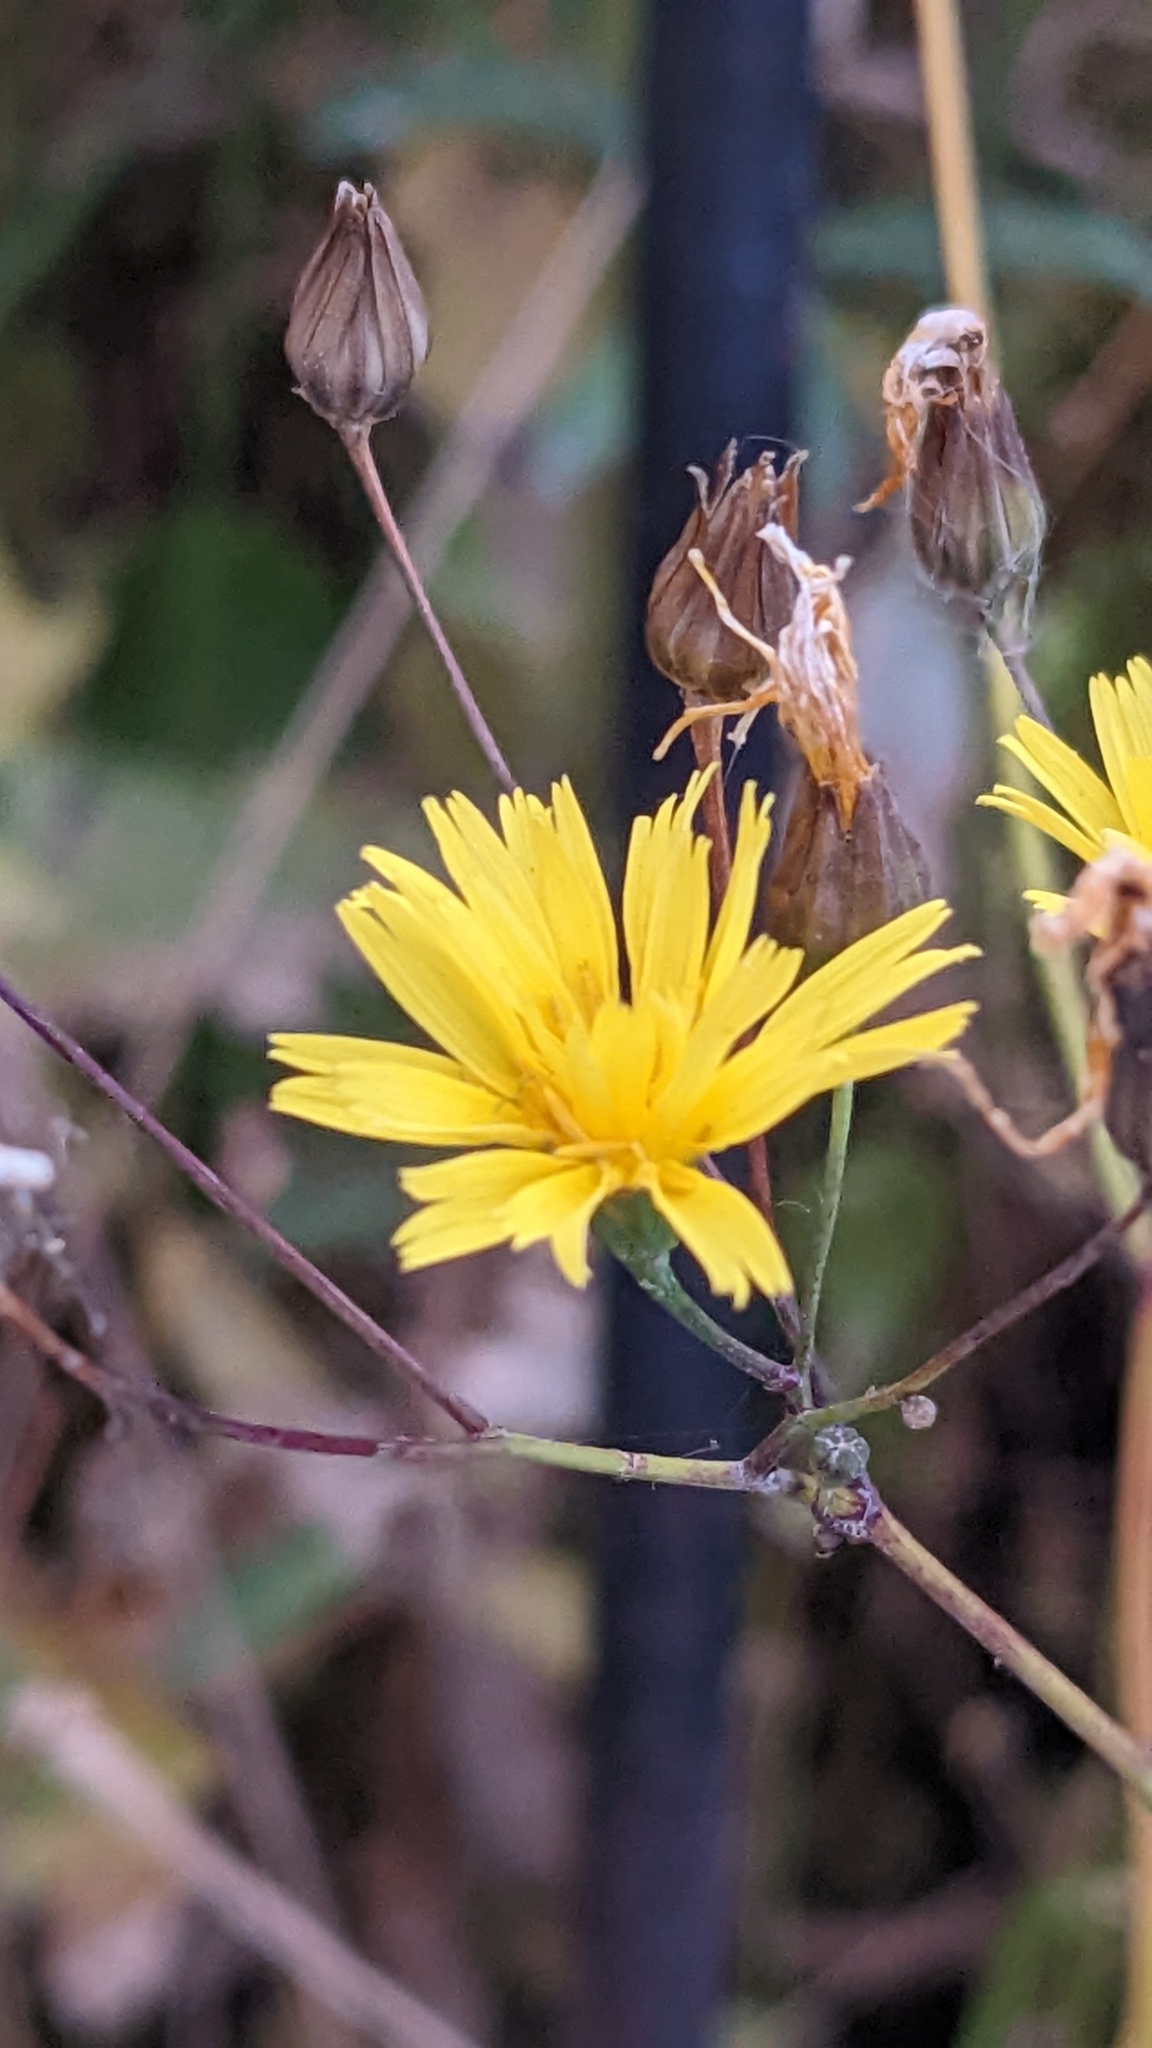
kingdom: Plantae
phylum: Tracheophyta
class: Magnoliopsida
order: Asterales
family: Asteraceae
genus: Lapsana
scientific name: Lapsana communis
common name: Nipplewort
